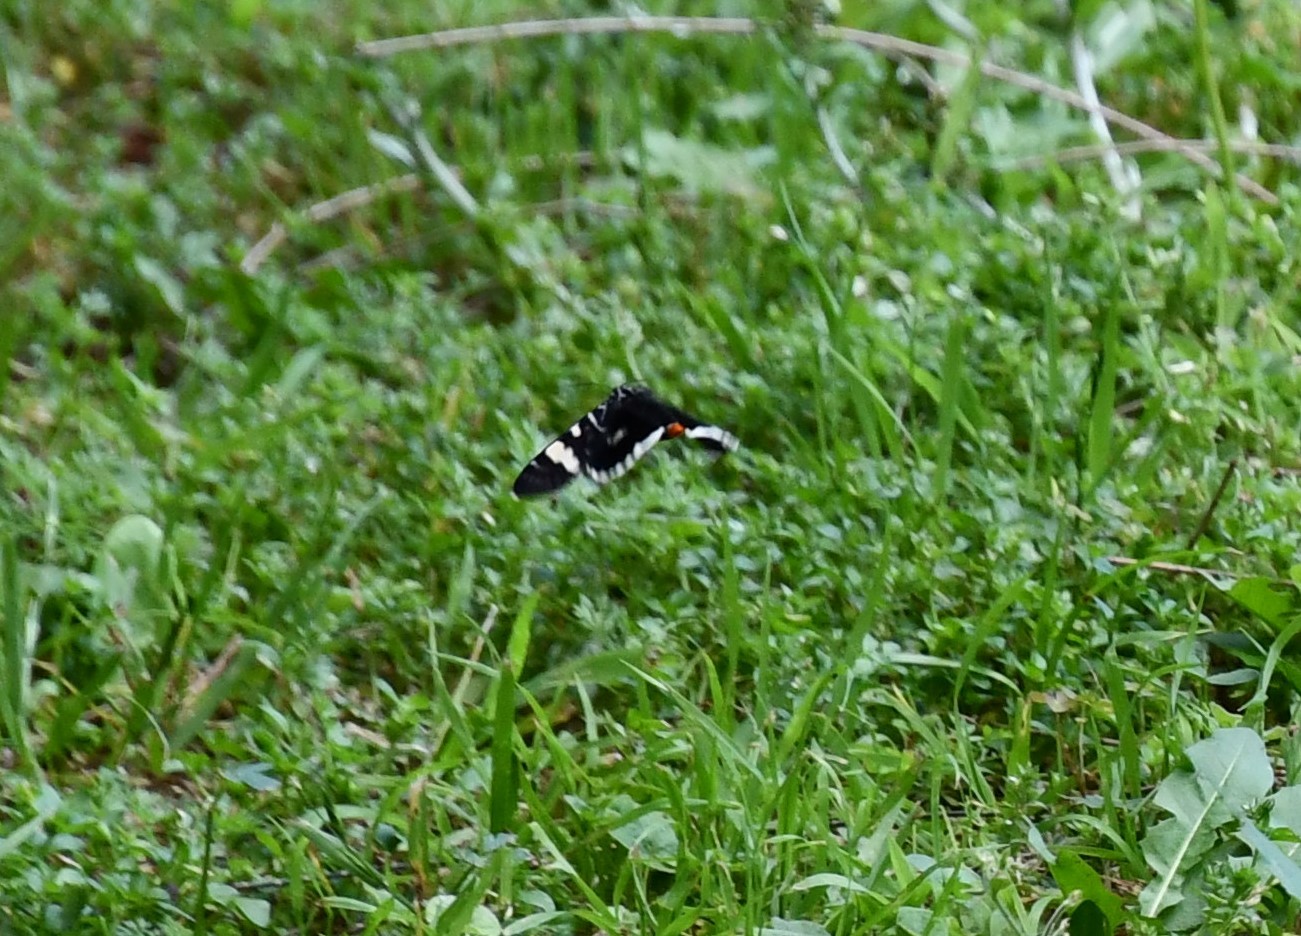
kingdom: Animalia
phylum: Arthropoda
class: Insecta
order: Lepidoptera
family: Noctuidae
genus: Phalaenoides
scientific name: Phalaenoides glycinae
